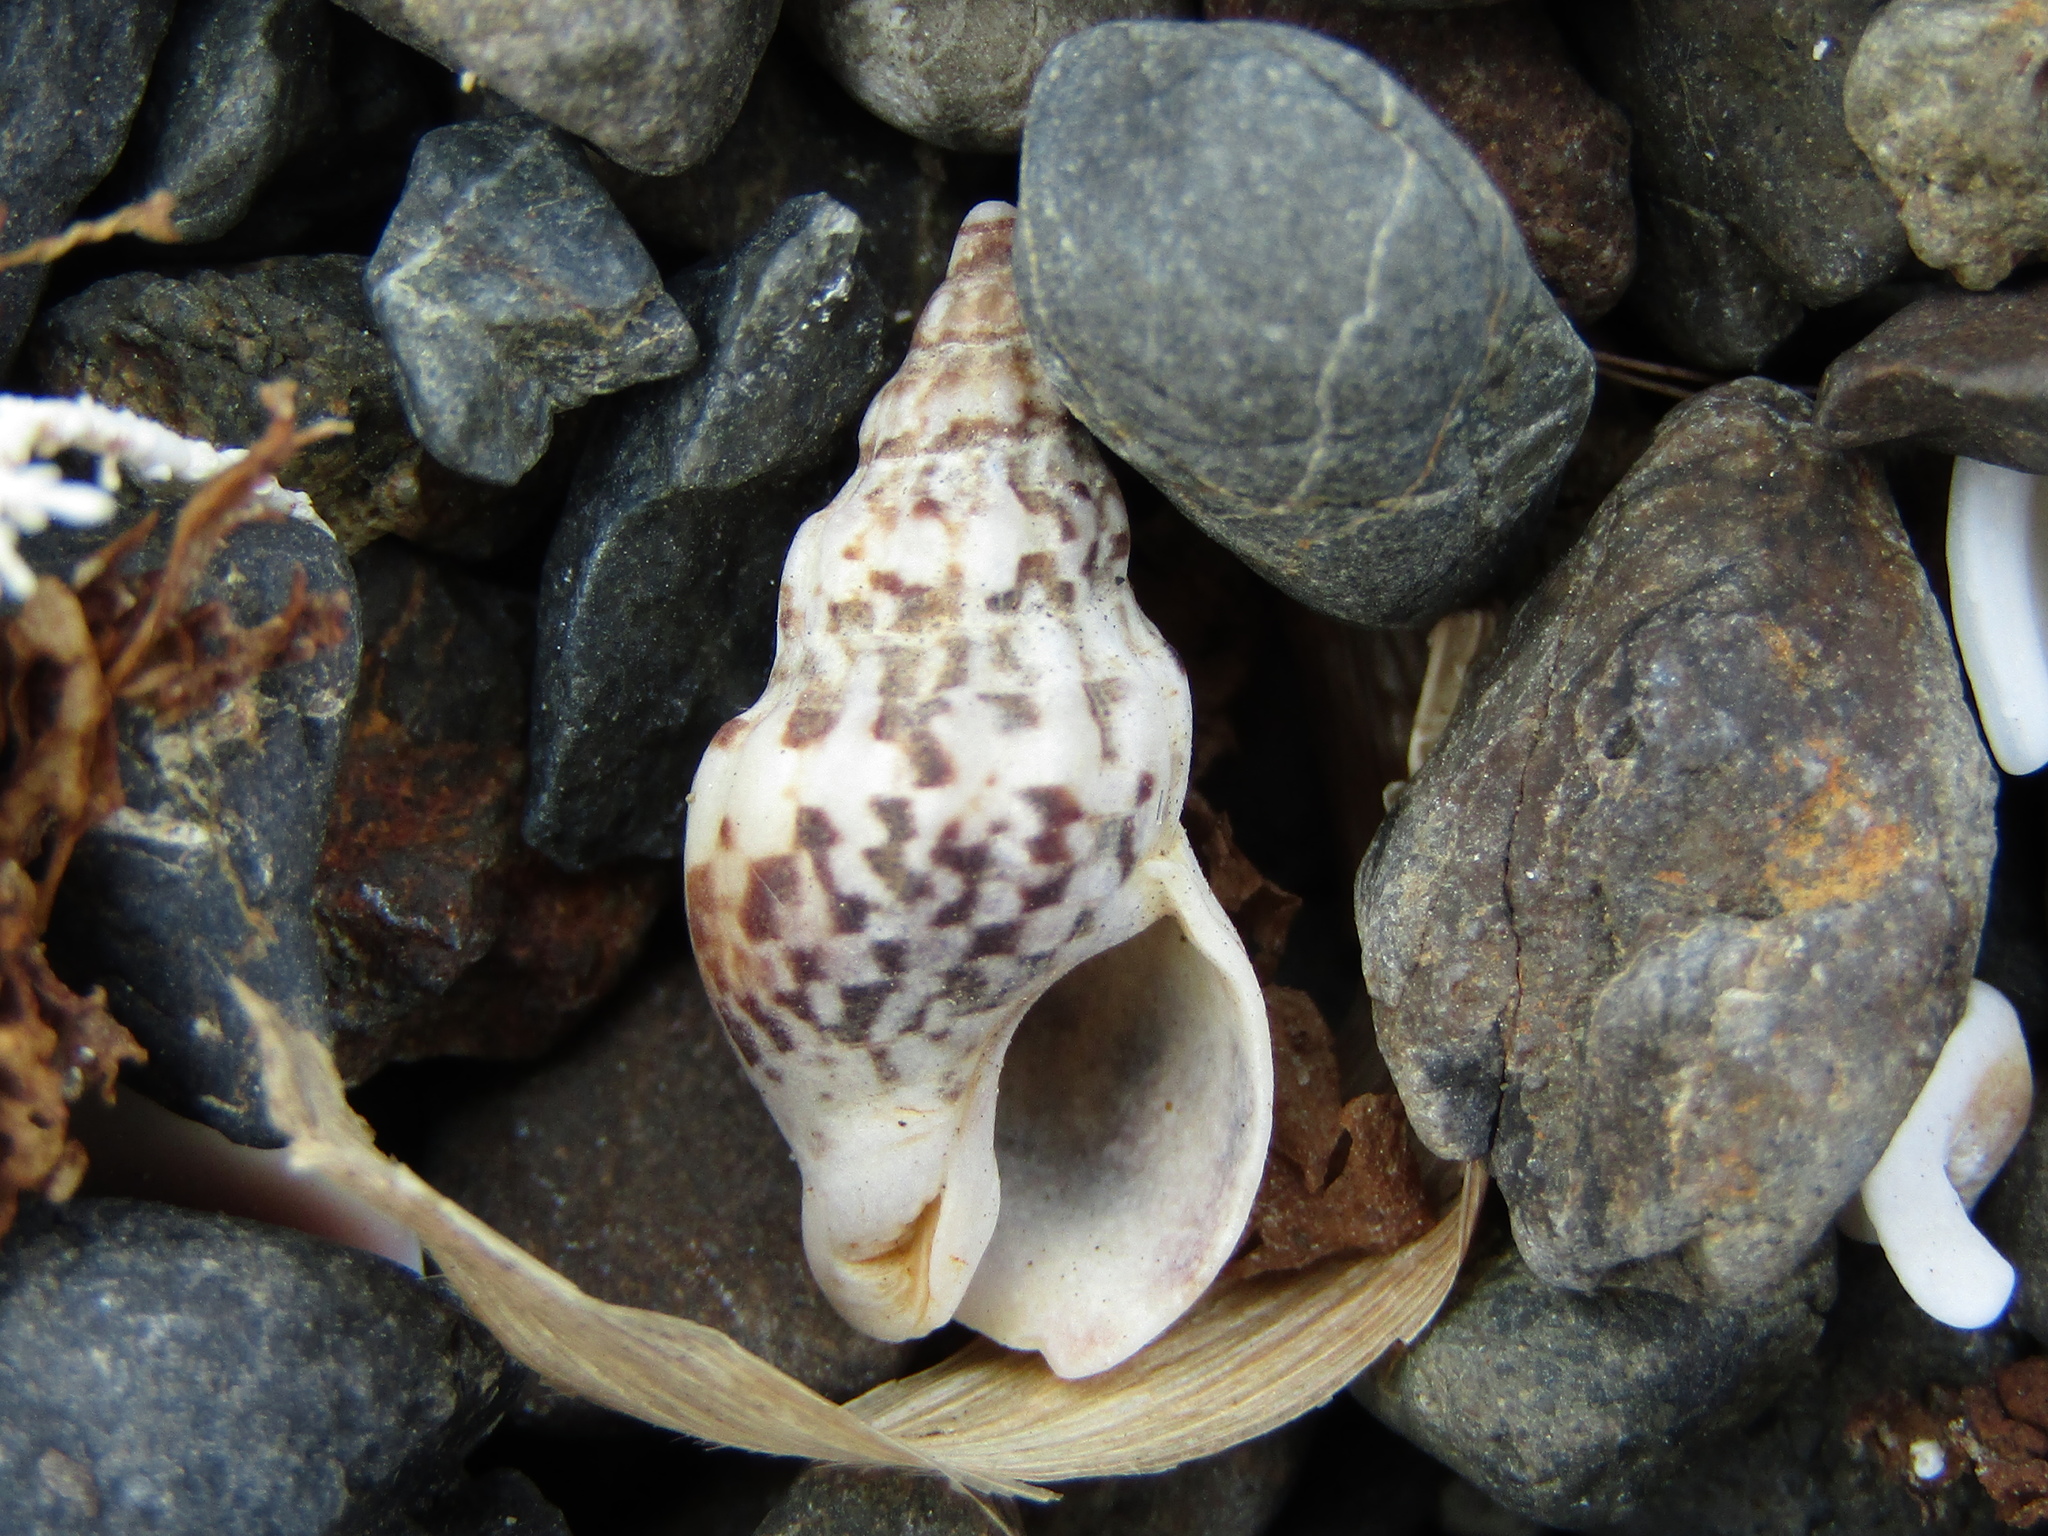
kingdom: Animalia
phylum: Mollusca
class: Gastropoda
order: Neogastropoda
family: Cominellidae
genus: Cominella
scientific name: Cominella quoyana
